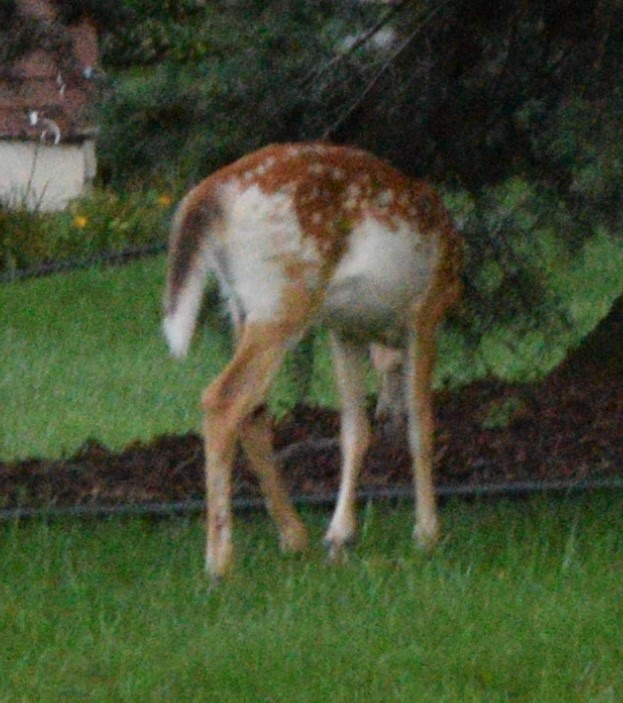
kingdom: Animalia
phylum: Chordata
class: Mammalia
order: Artiodactyla
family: Cervidae
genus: Odocoileus
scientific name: Odocoileus virginianus
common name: White-tailed deer
